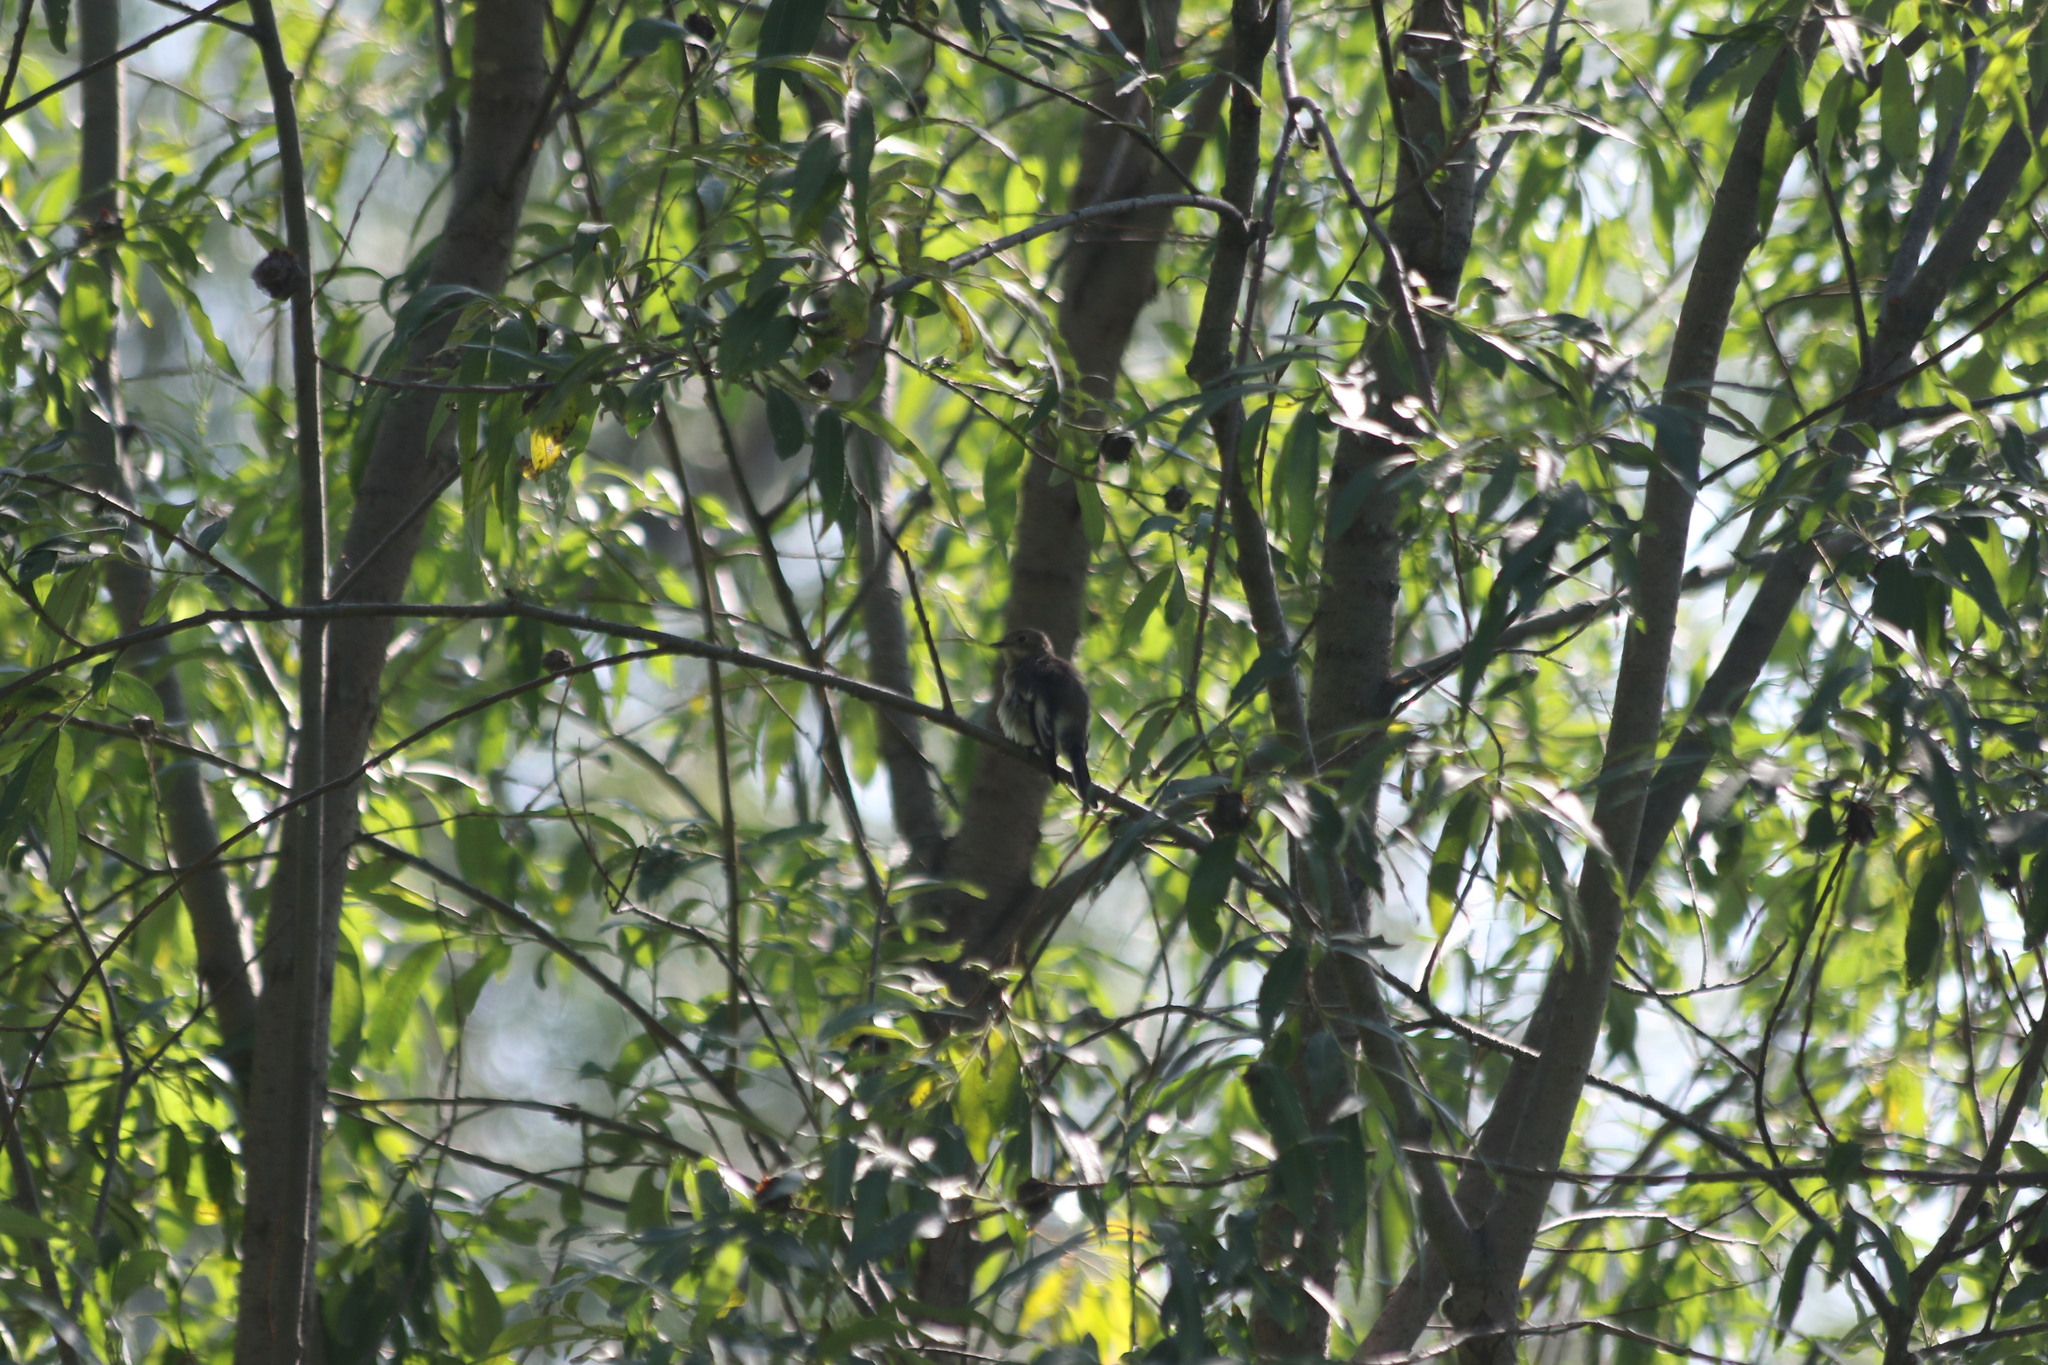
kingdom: Animalia
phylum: Chordata
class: Aves
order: Passeriformes
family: Muscicapidae
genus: Ficedula
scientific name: Ficedula hypoleuca
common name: European pied flycatcher
